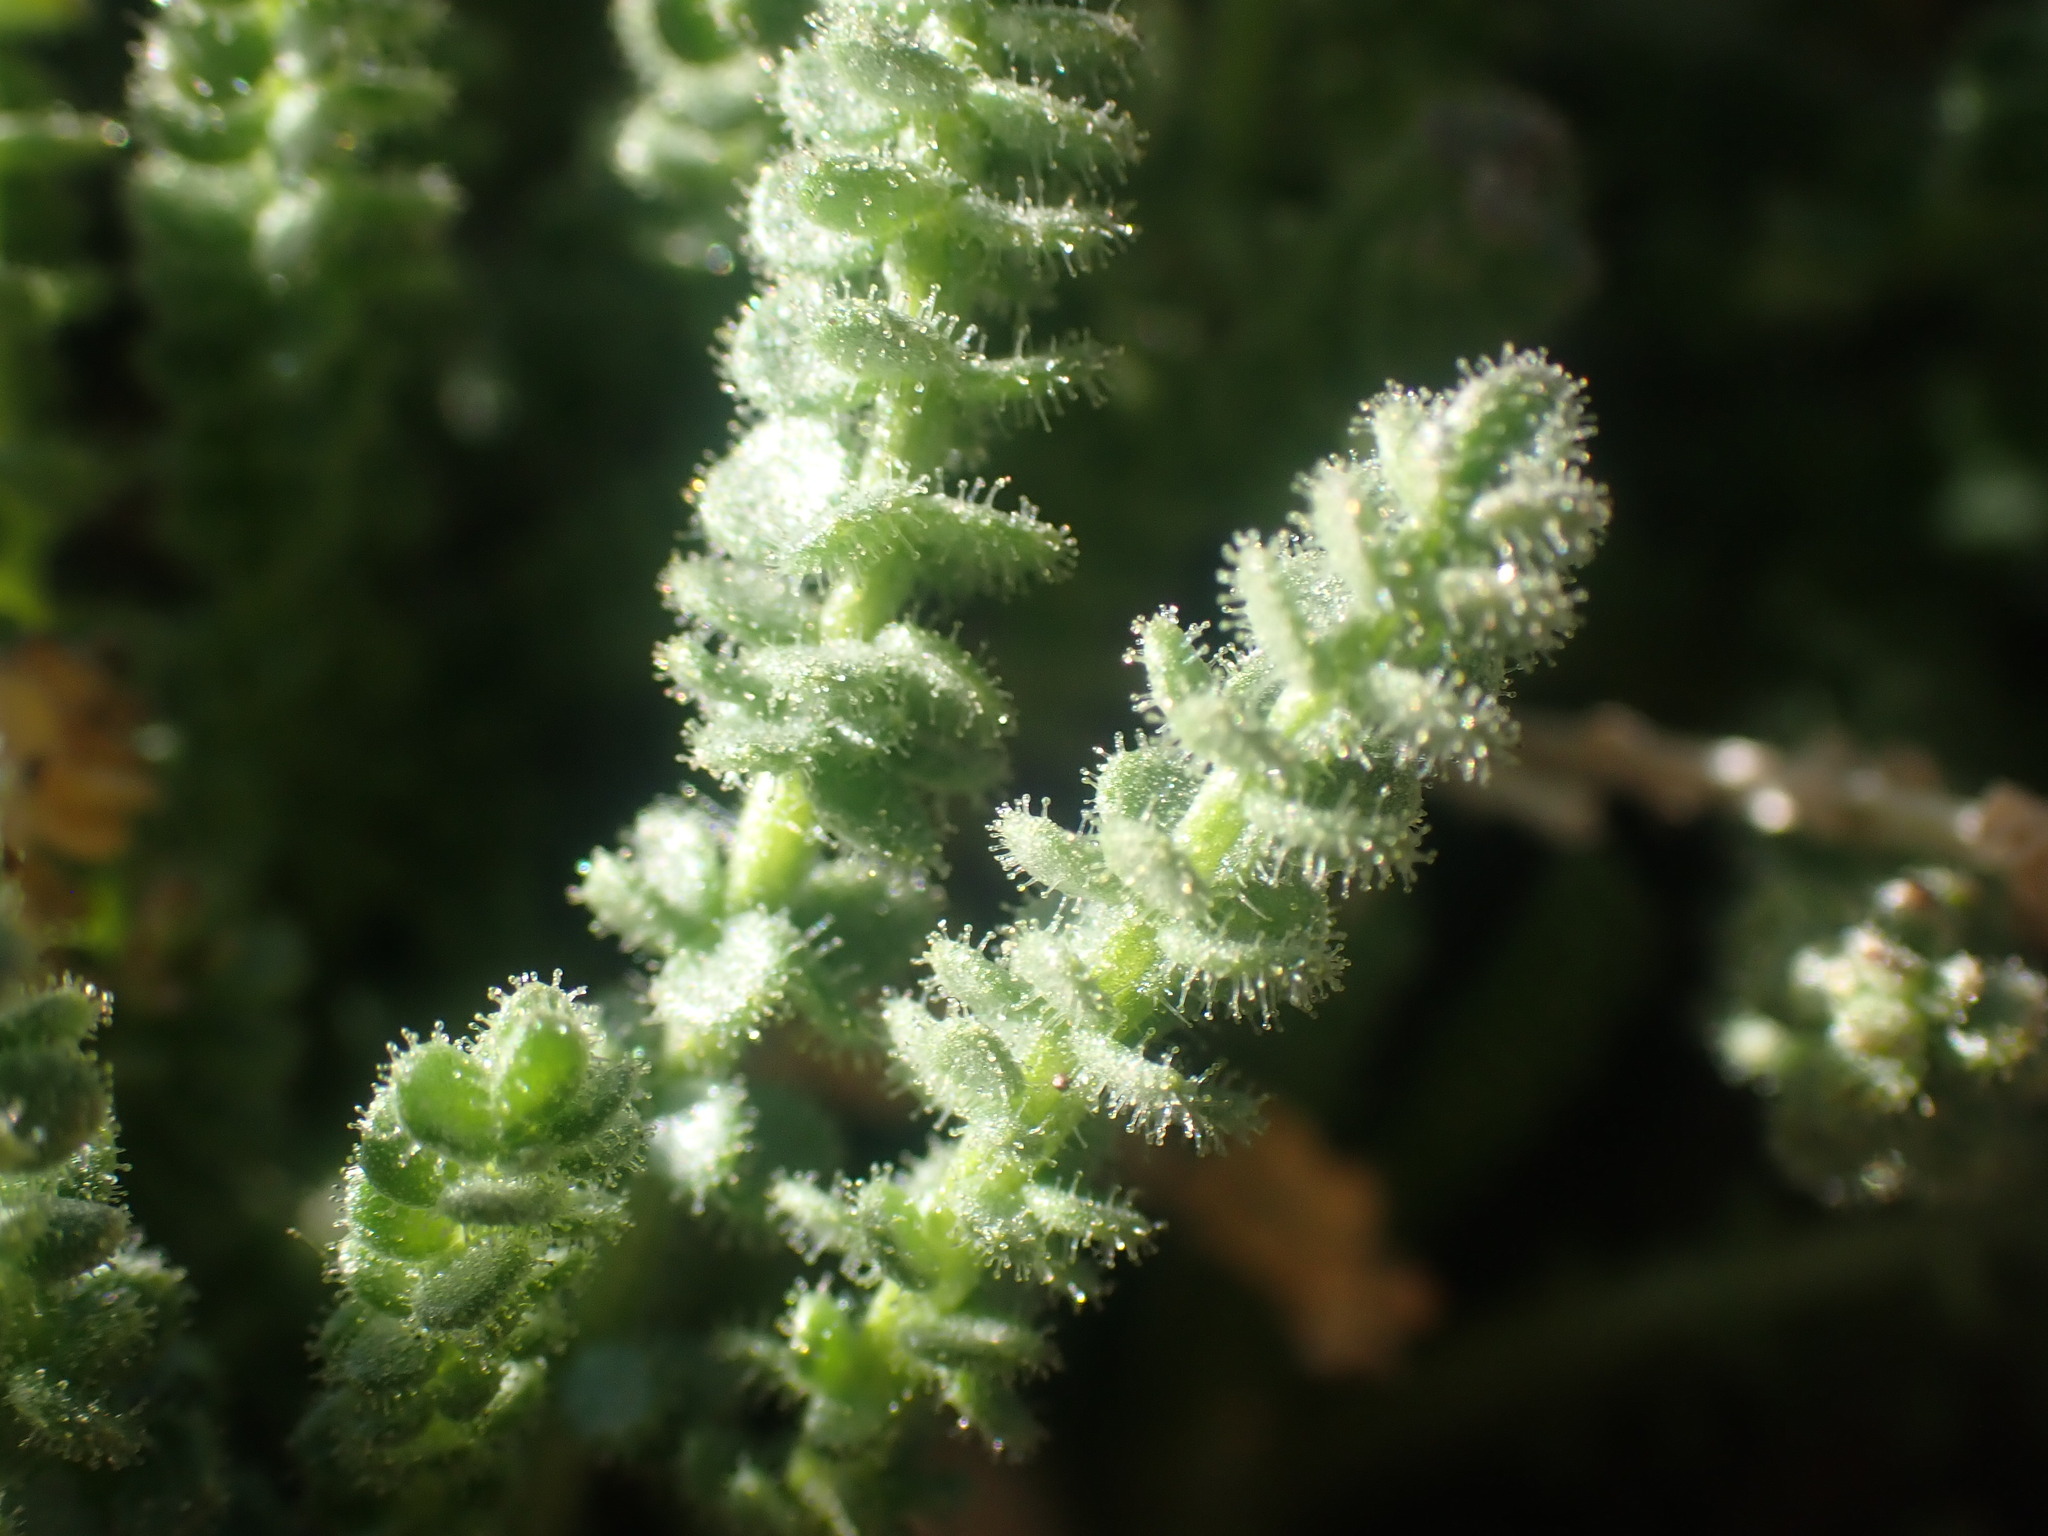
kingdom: Plantae
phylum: Tracheophyta
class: Magnoliopsida
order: Ericales
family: Polemoniaceae
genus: Polemonium
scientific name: Polemonium viscosum
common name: Skunk jacob's-ladder
